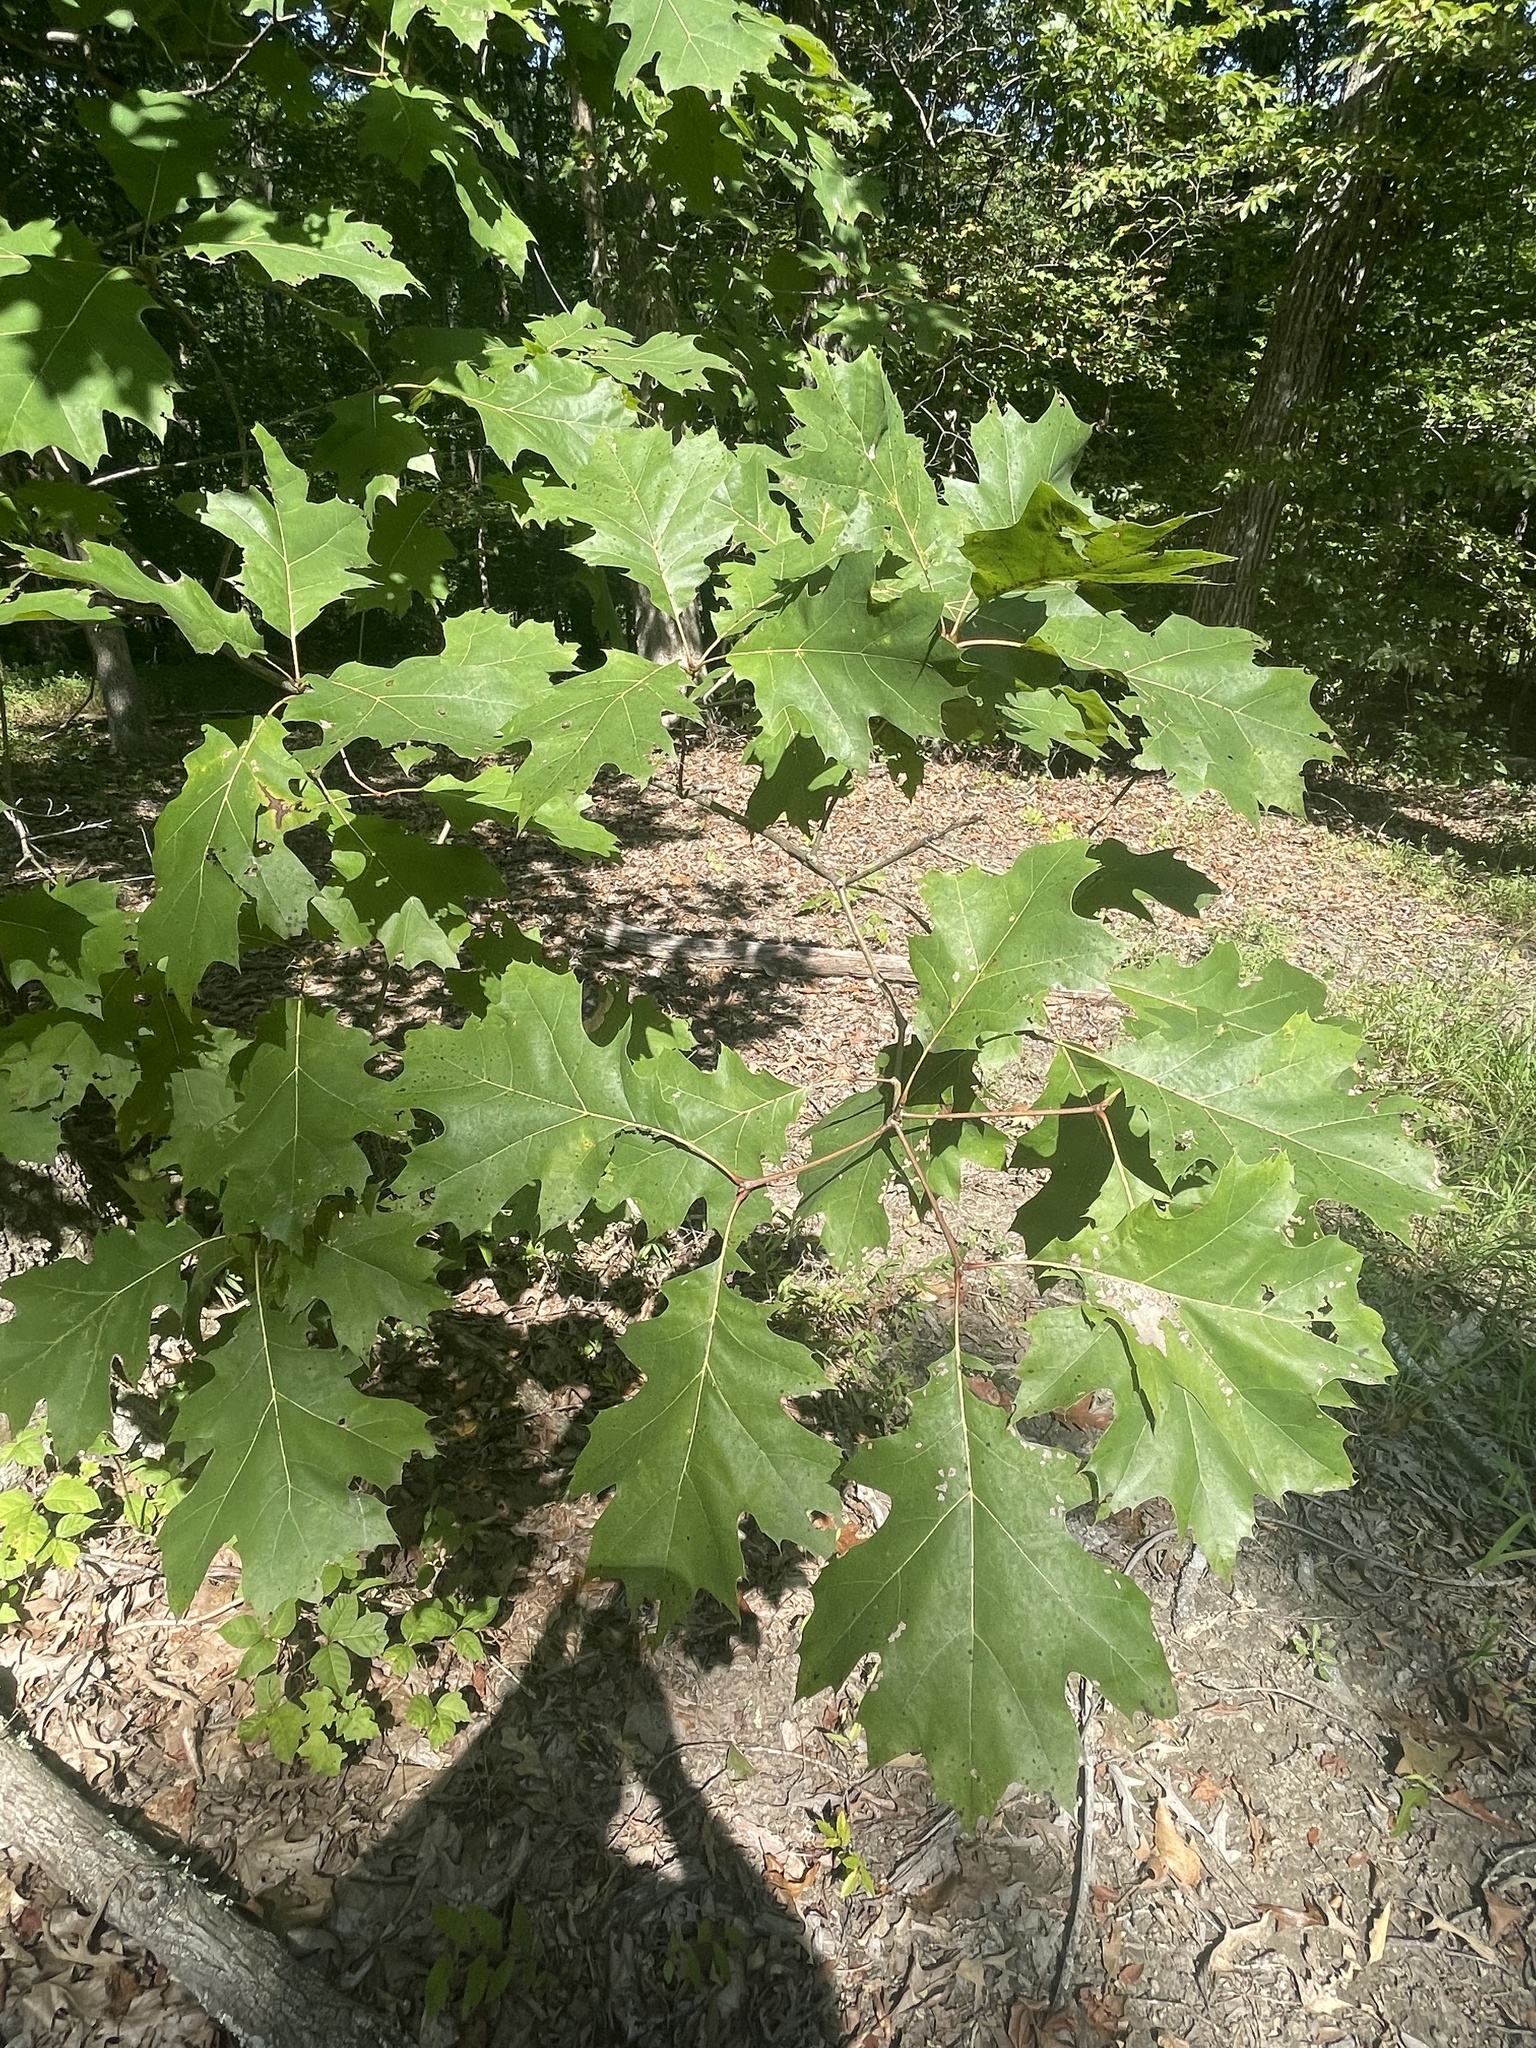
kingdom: Plantae
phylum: Tracheophyta
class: Magnoliopsida
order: Fagales
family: Fagaceae
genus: Quercus
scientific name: Quercus rubra
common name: Red oak
